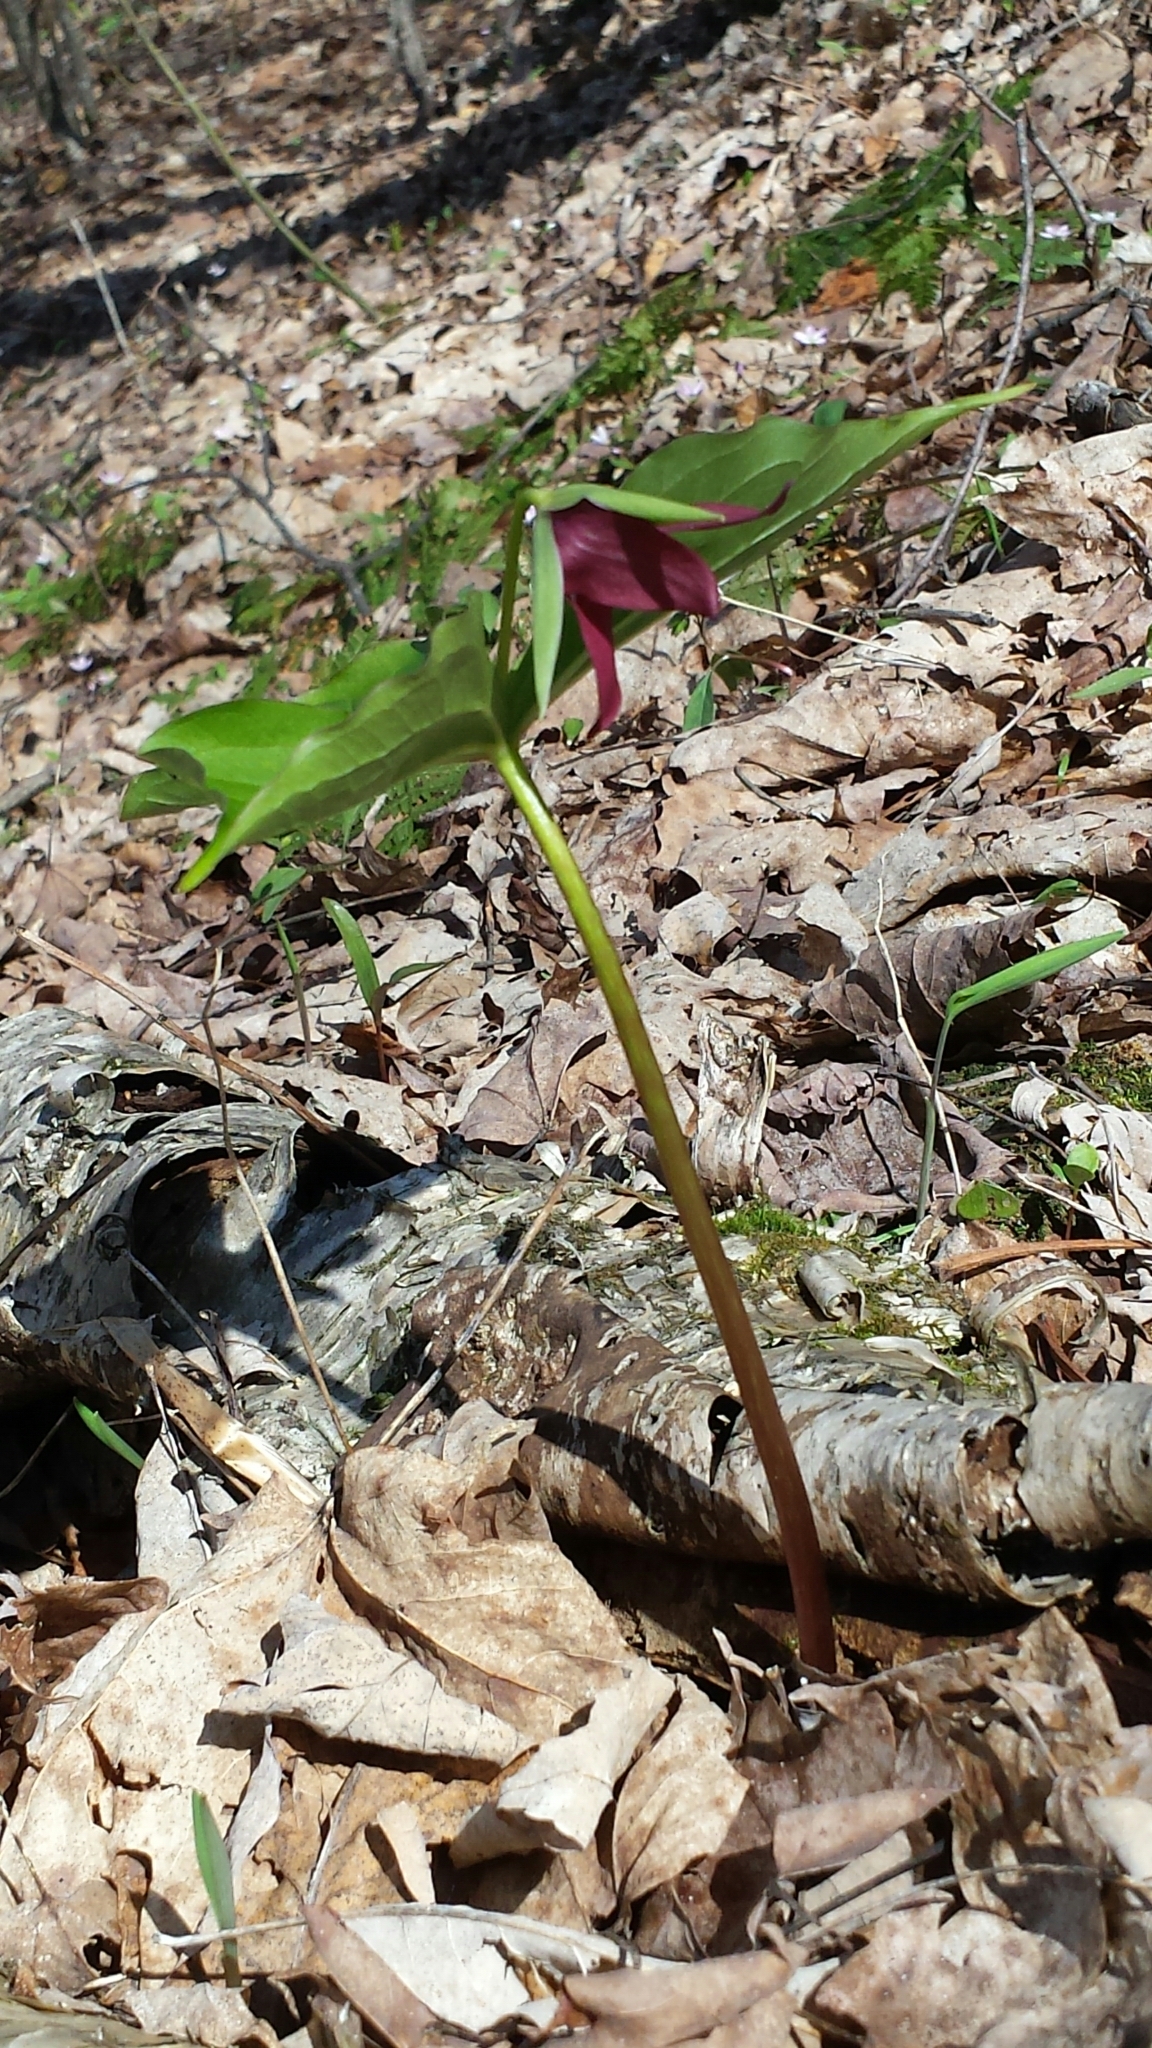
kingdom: Plantae
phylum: Tracheophyta
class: Liliopsida
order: Liliales
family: Melanthiaceae
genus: Trillium
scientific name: Trillium erectum
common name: Purple trillium
